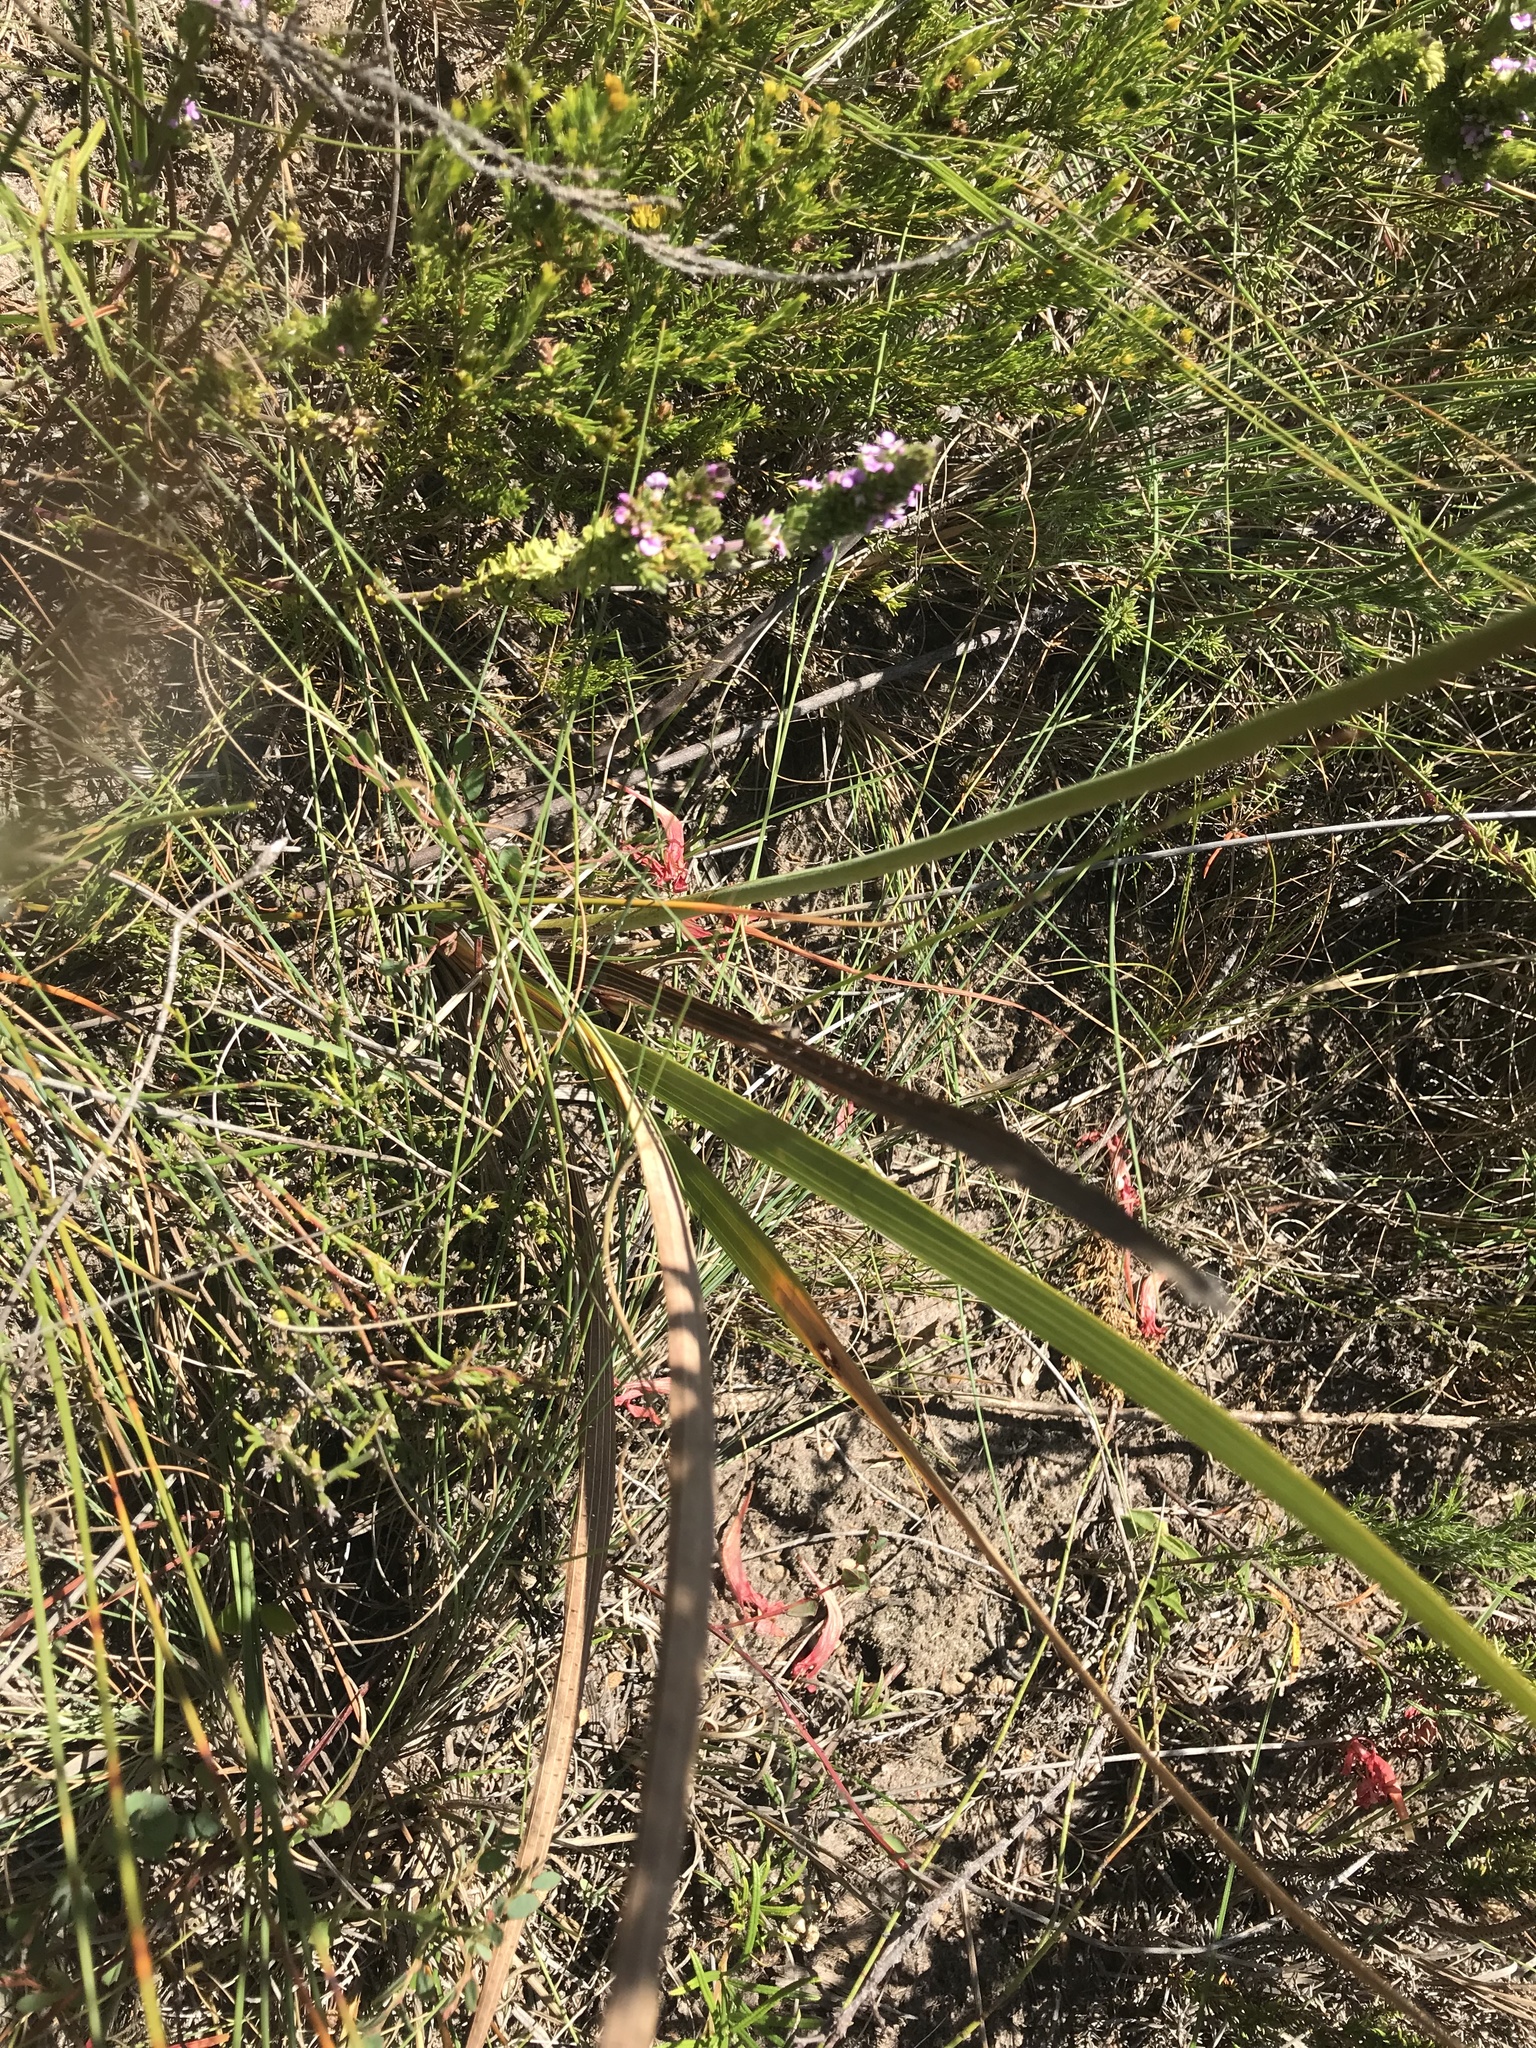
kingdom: Plantae
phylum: Tracheophyta
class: Liliopsida
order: Asparagales
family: Iridaceae
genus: Tritoniopsis
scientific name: Tritoniopsis antholyza
